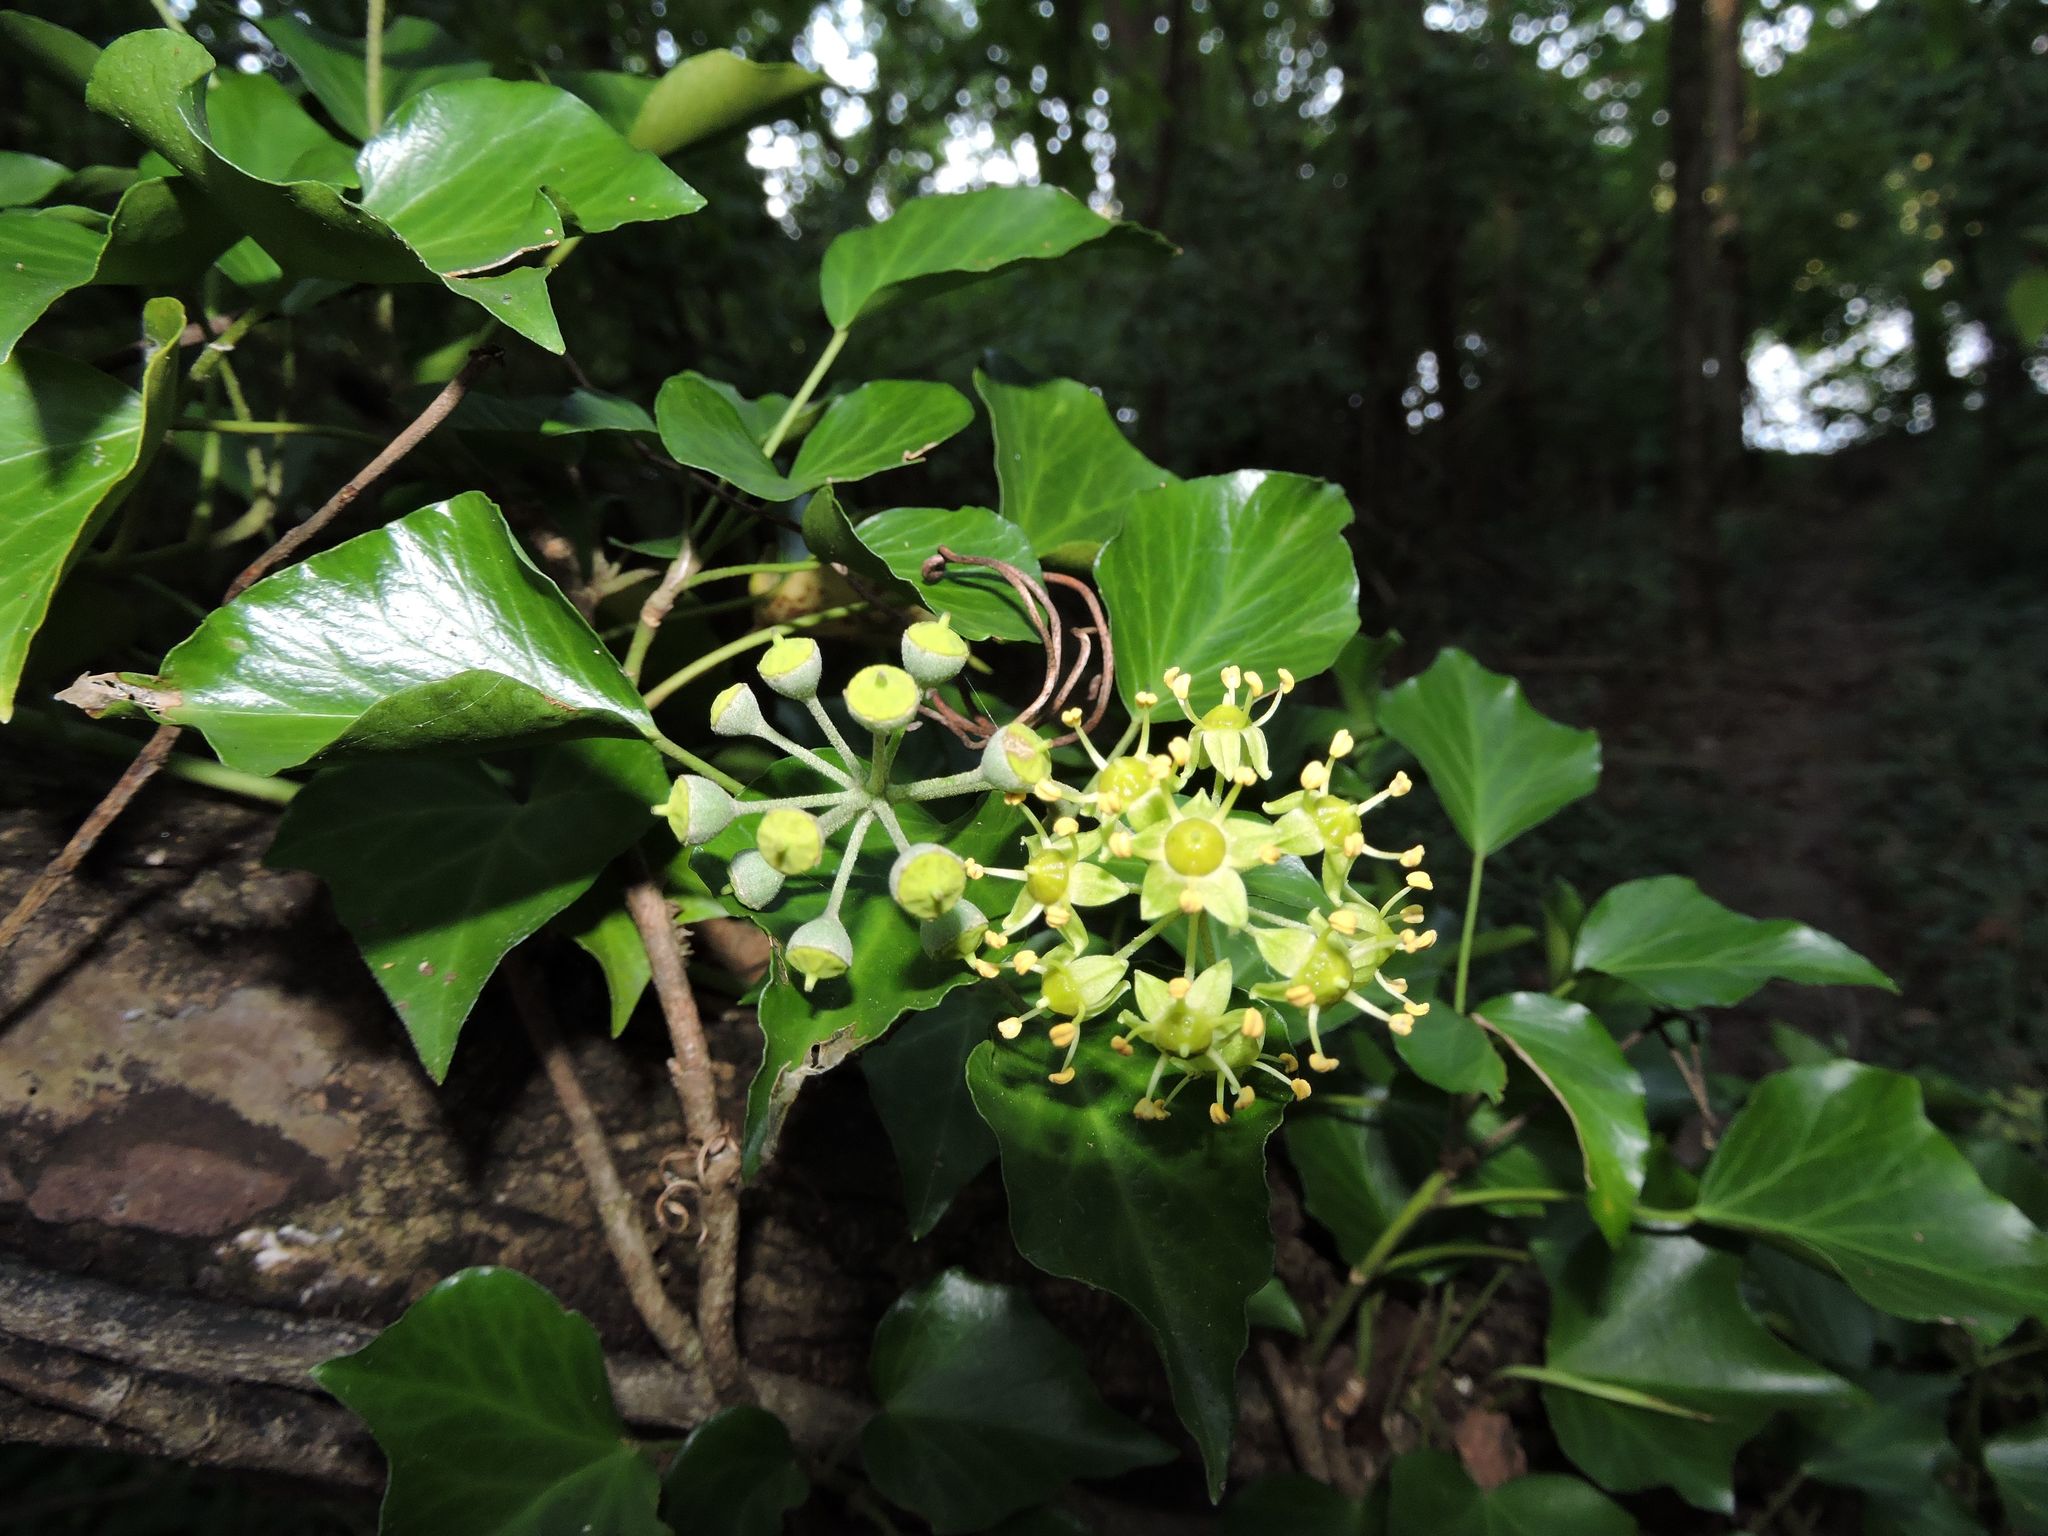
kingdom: Plantae
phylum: Tracheophyta
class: Magnoliopsida
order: Apiales
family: Araliaceae
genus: Hedera
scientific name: Hedera helix
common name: Ivy
